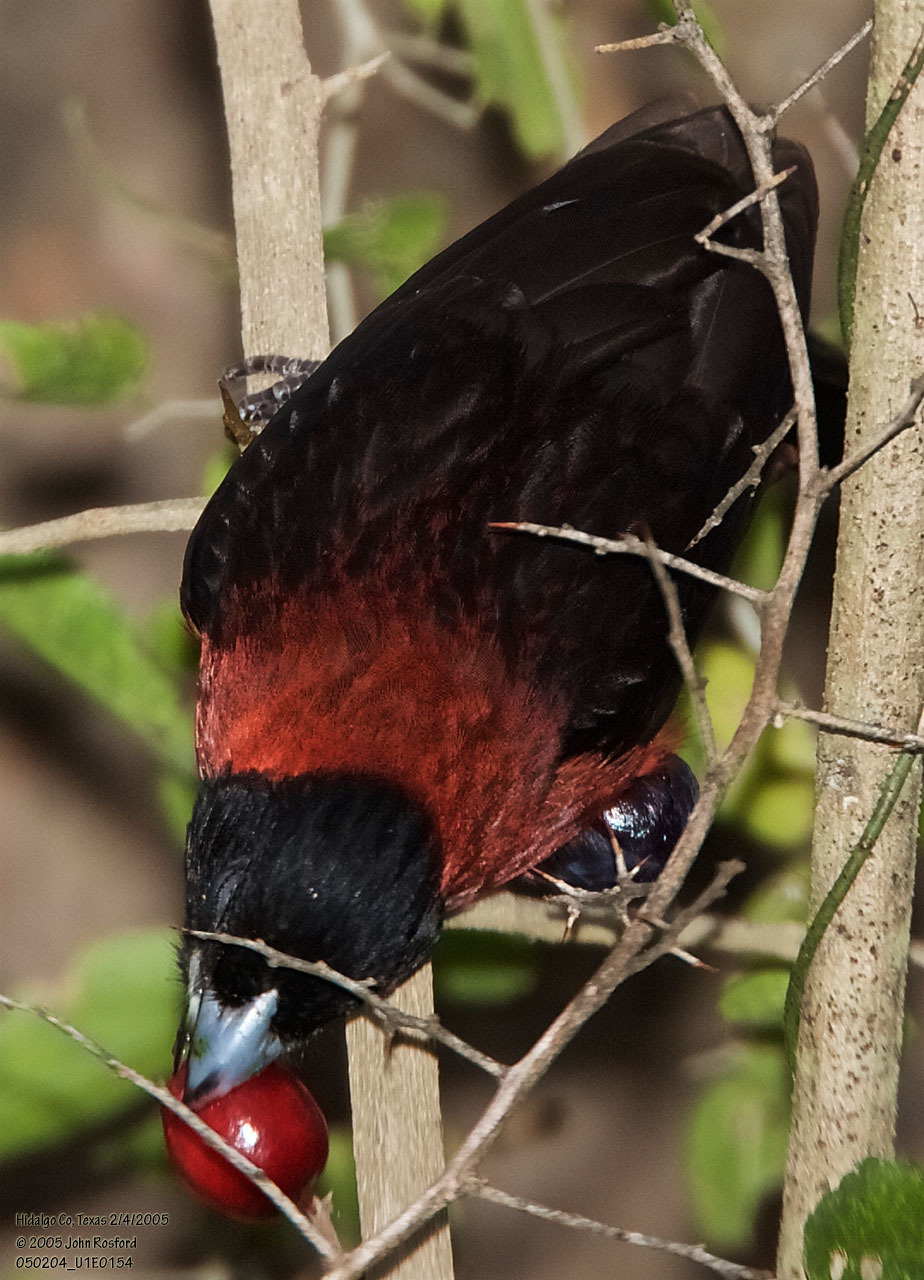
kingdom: Animalia
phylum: Chordata
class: Aves
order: Passeriformes
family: Cardinalidae
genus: Rhodothraupis
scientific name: Rhodothraupis celaeno
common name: Crimson-collared grosbeak
